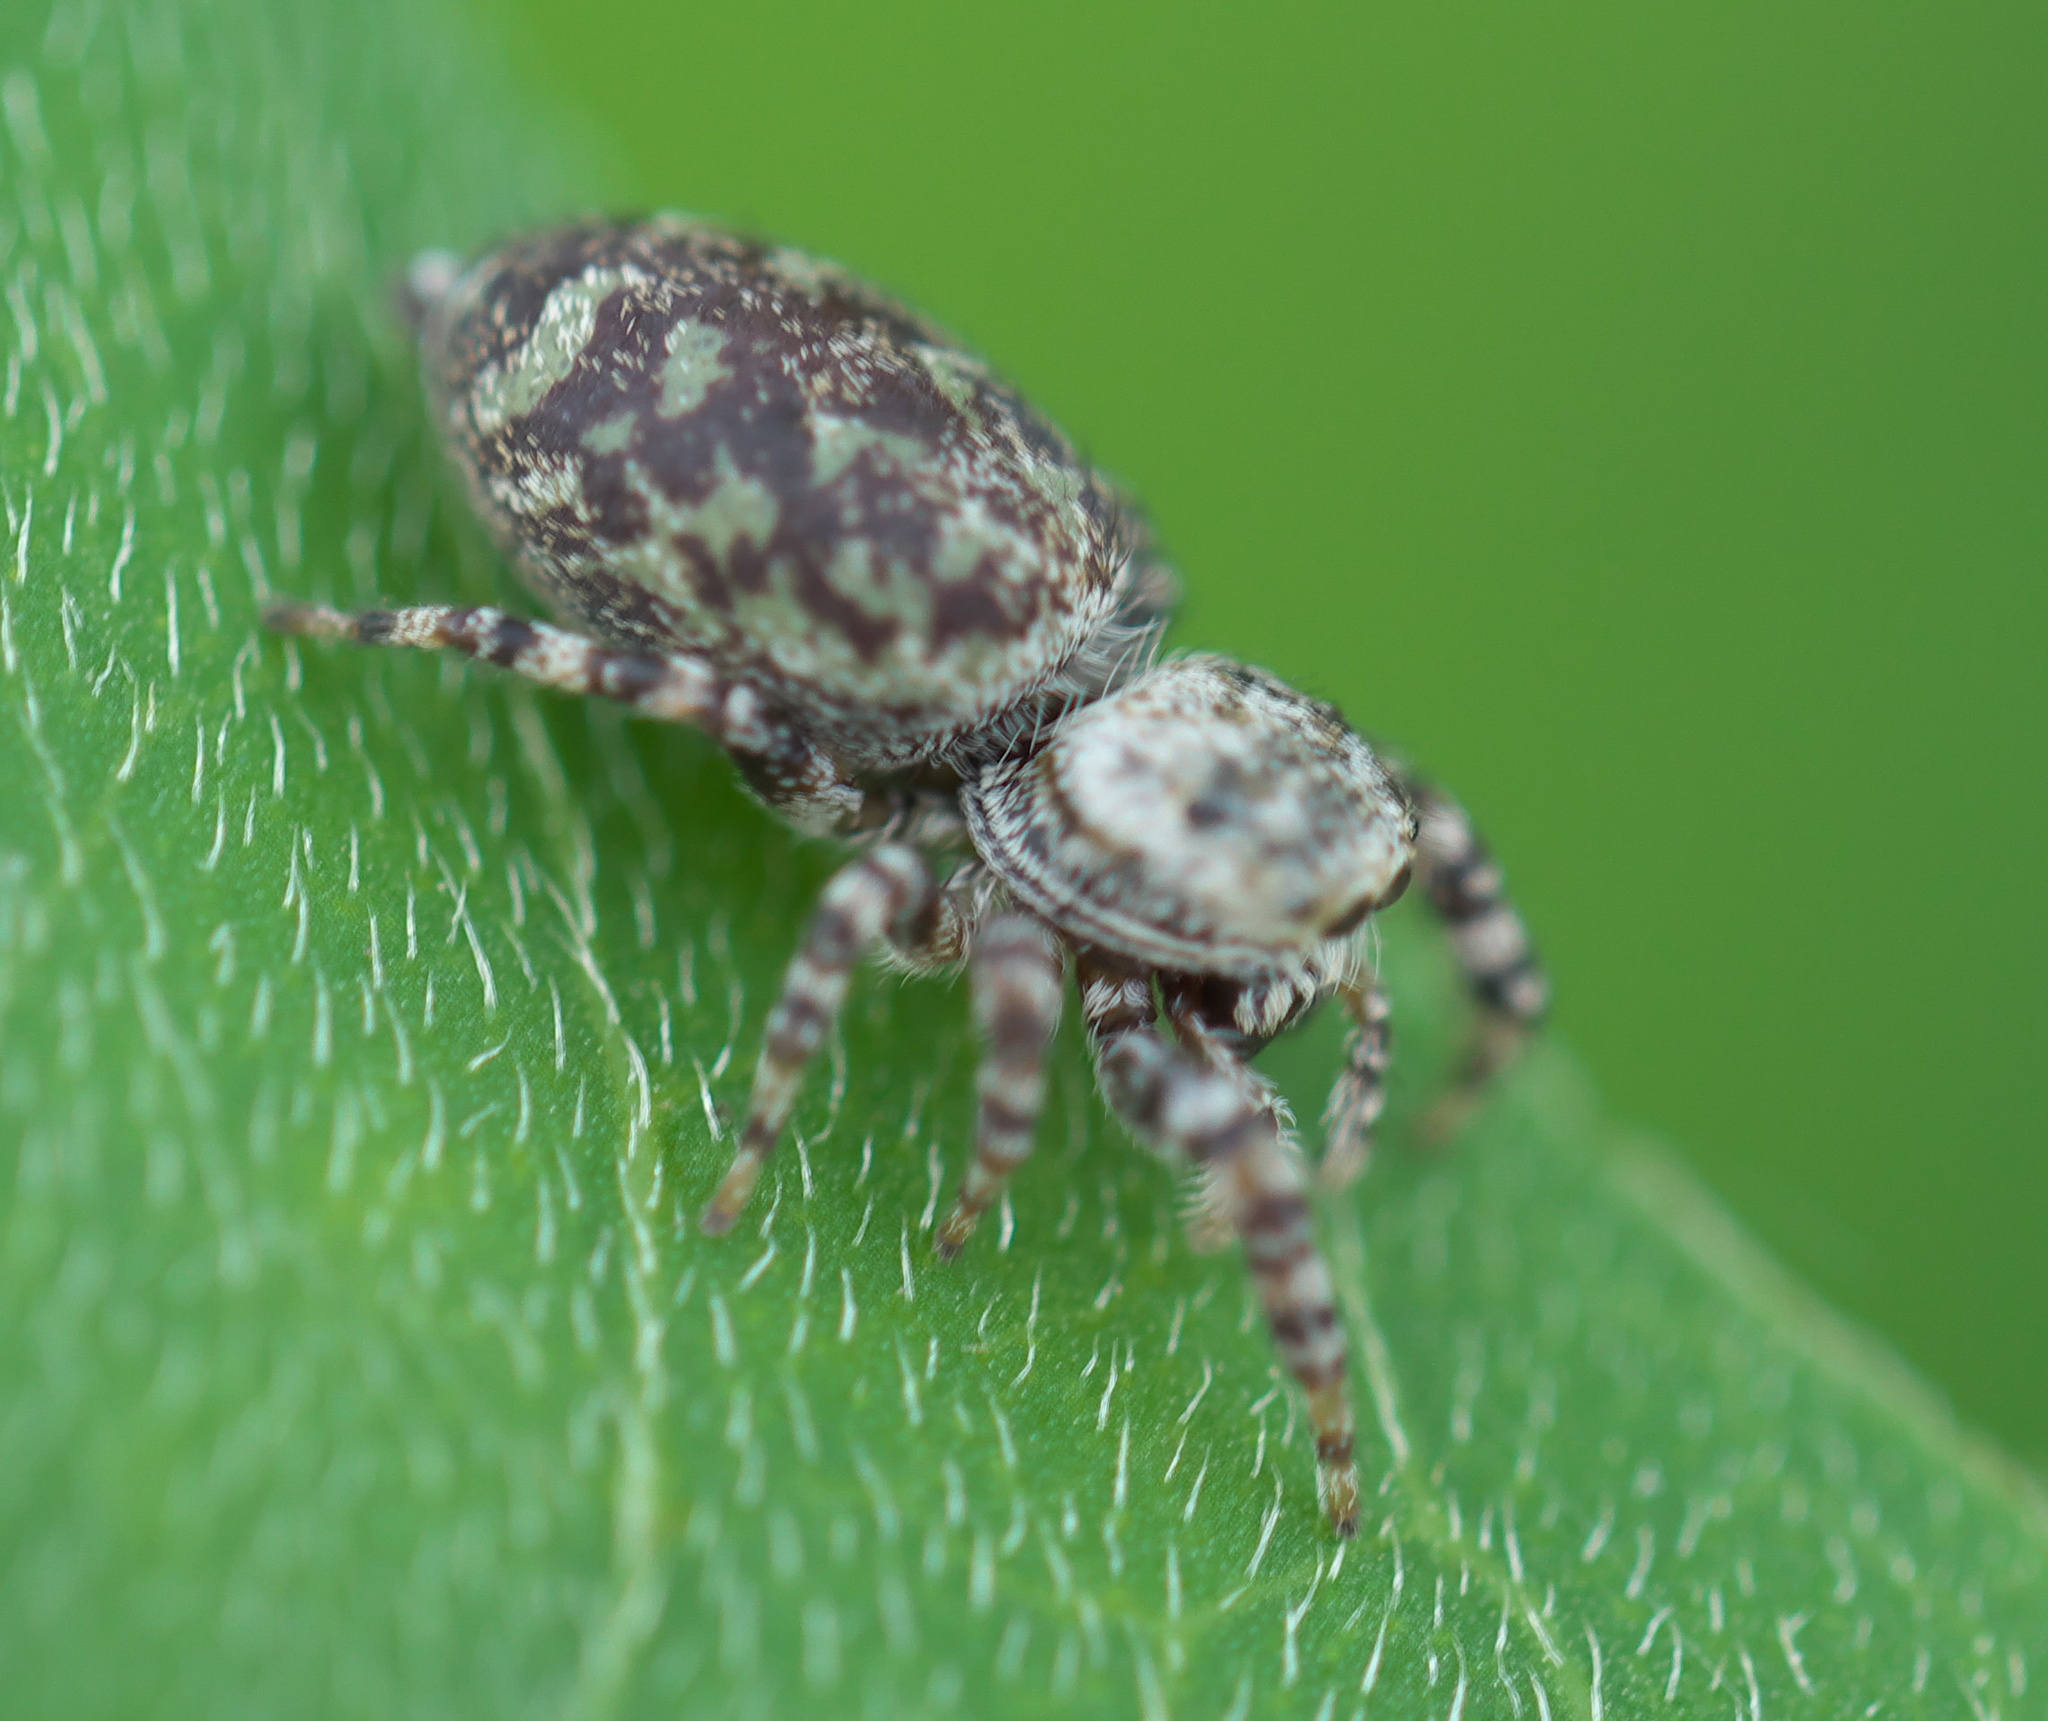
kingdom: Animalia
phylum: Arthropoda
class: Arachnida
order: Araneae
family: Salticidae
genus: Pelegrina
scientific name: Pelegrina galathea
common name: Jumping spiders
